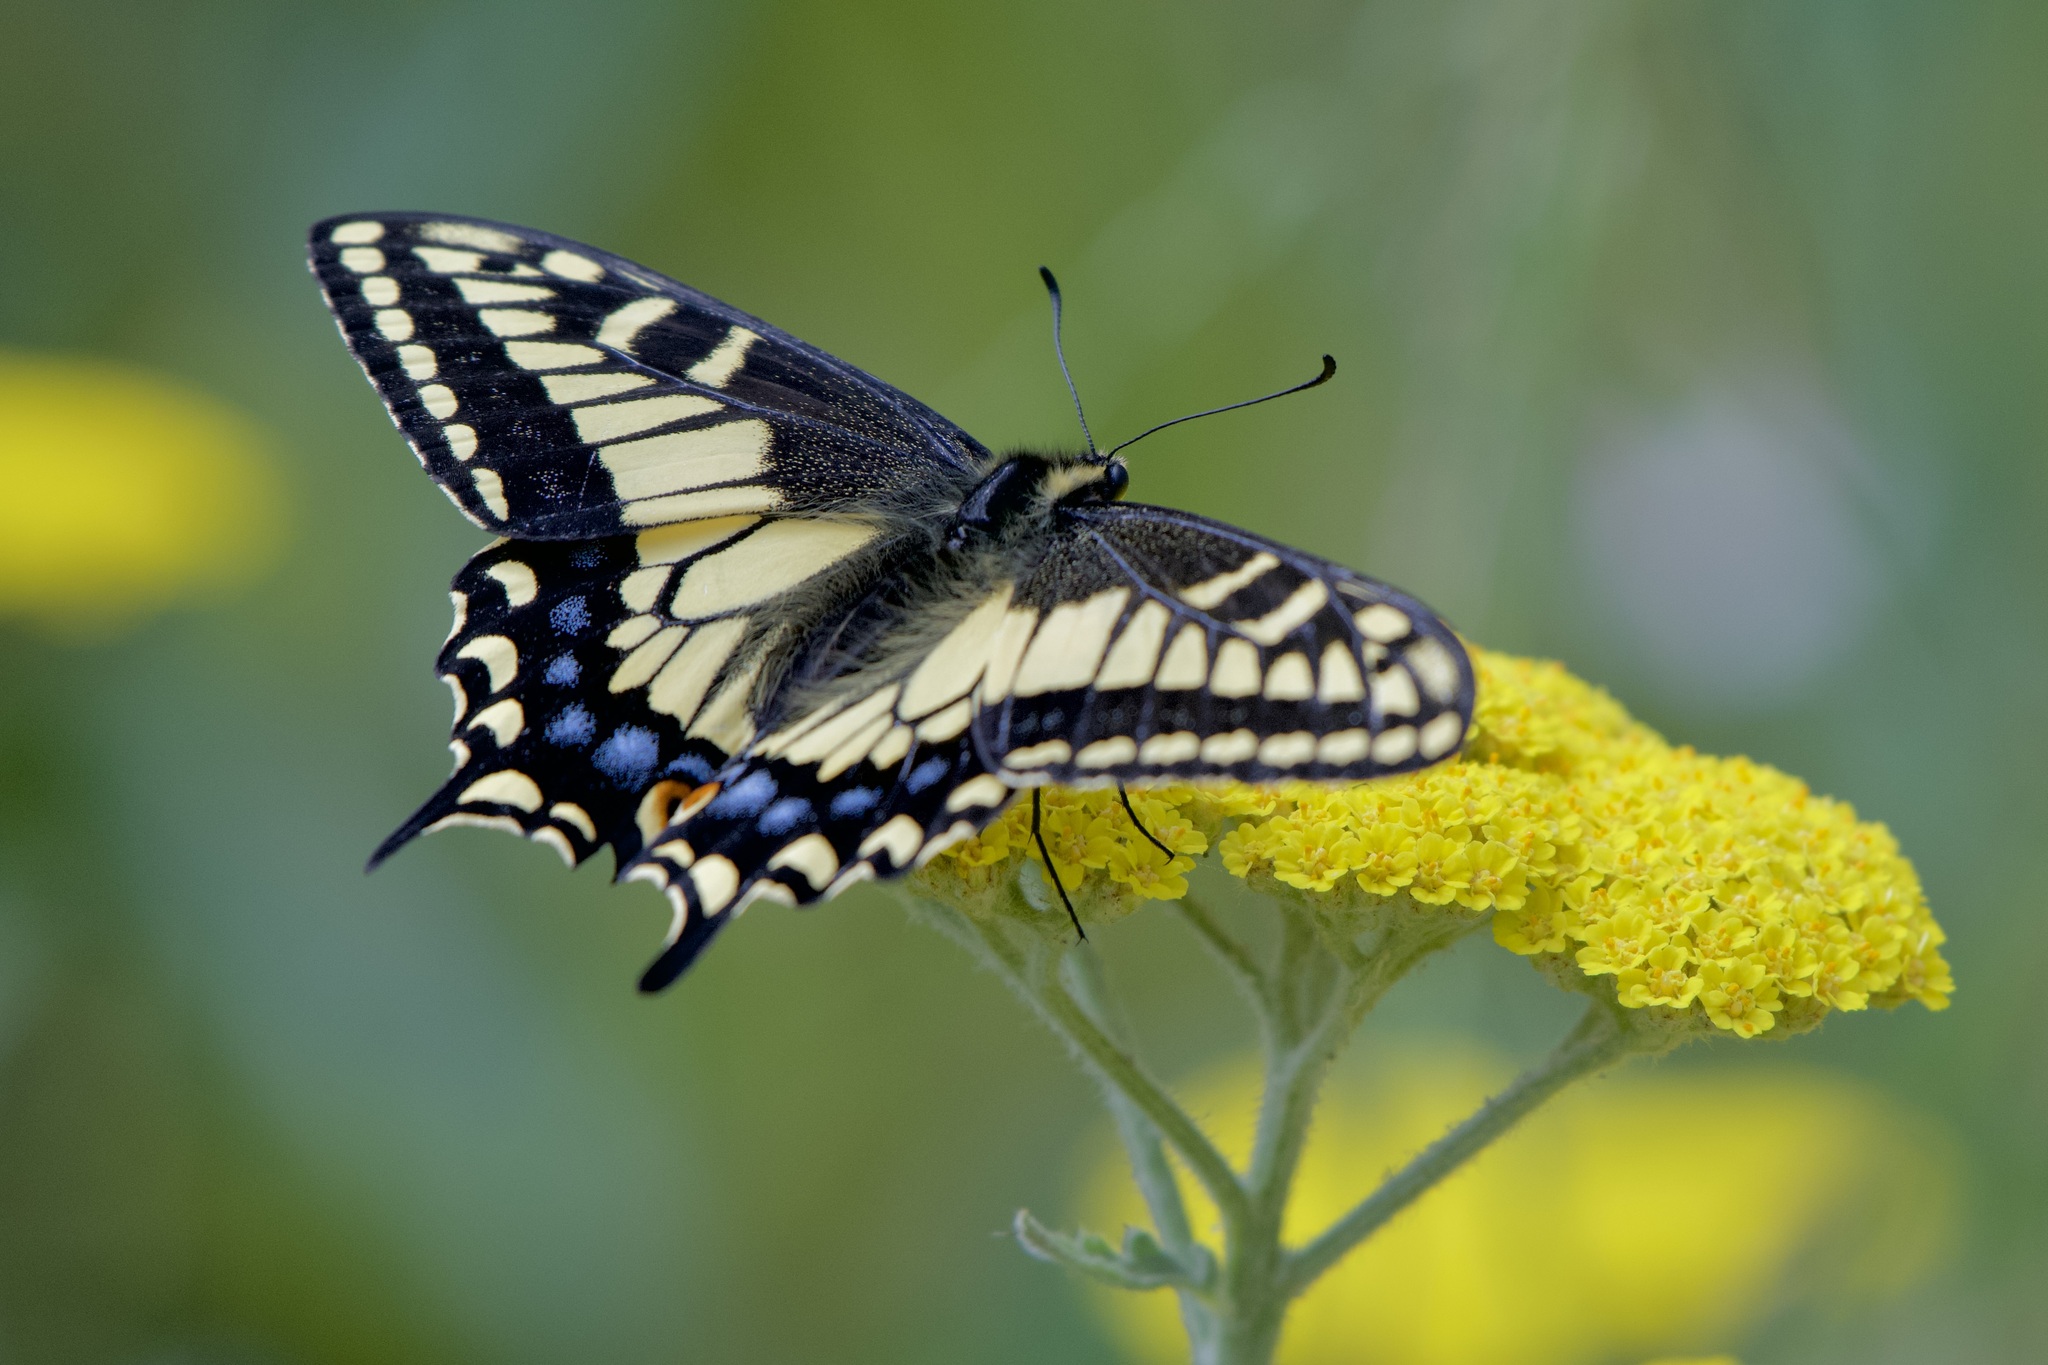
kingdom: Animalia
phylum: Arthropoda
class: Insecta
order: Lepidoptera
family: Papilionidae
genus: Papilio
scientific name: Papilio zelicaon
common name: Anise swallowtail
